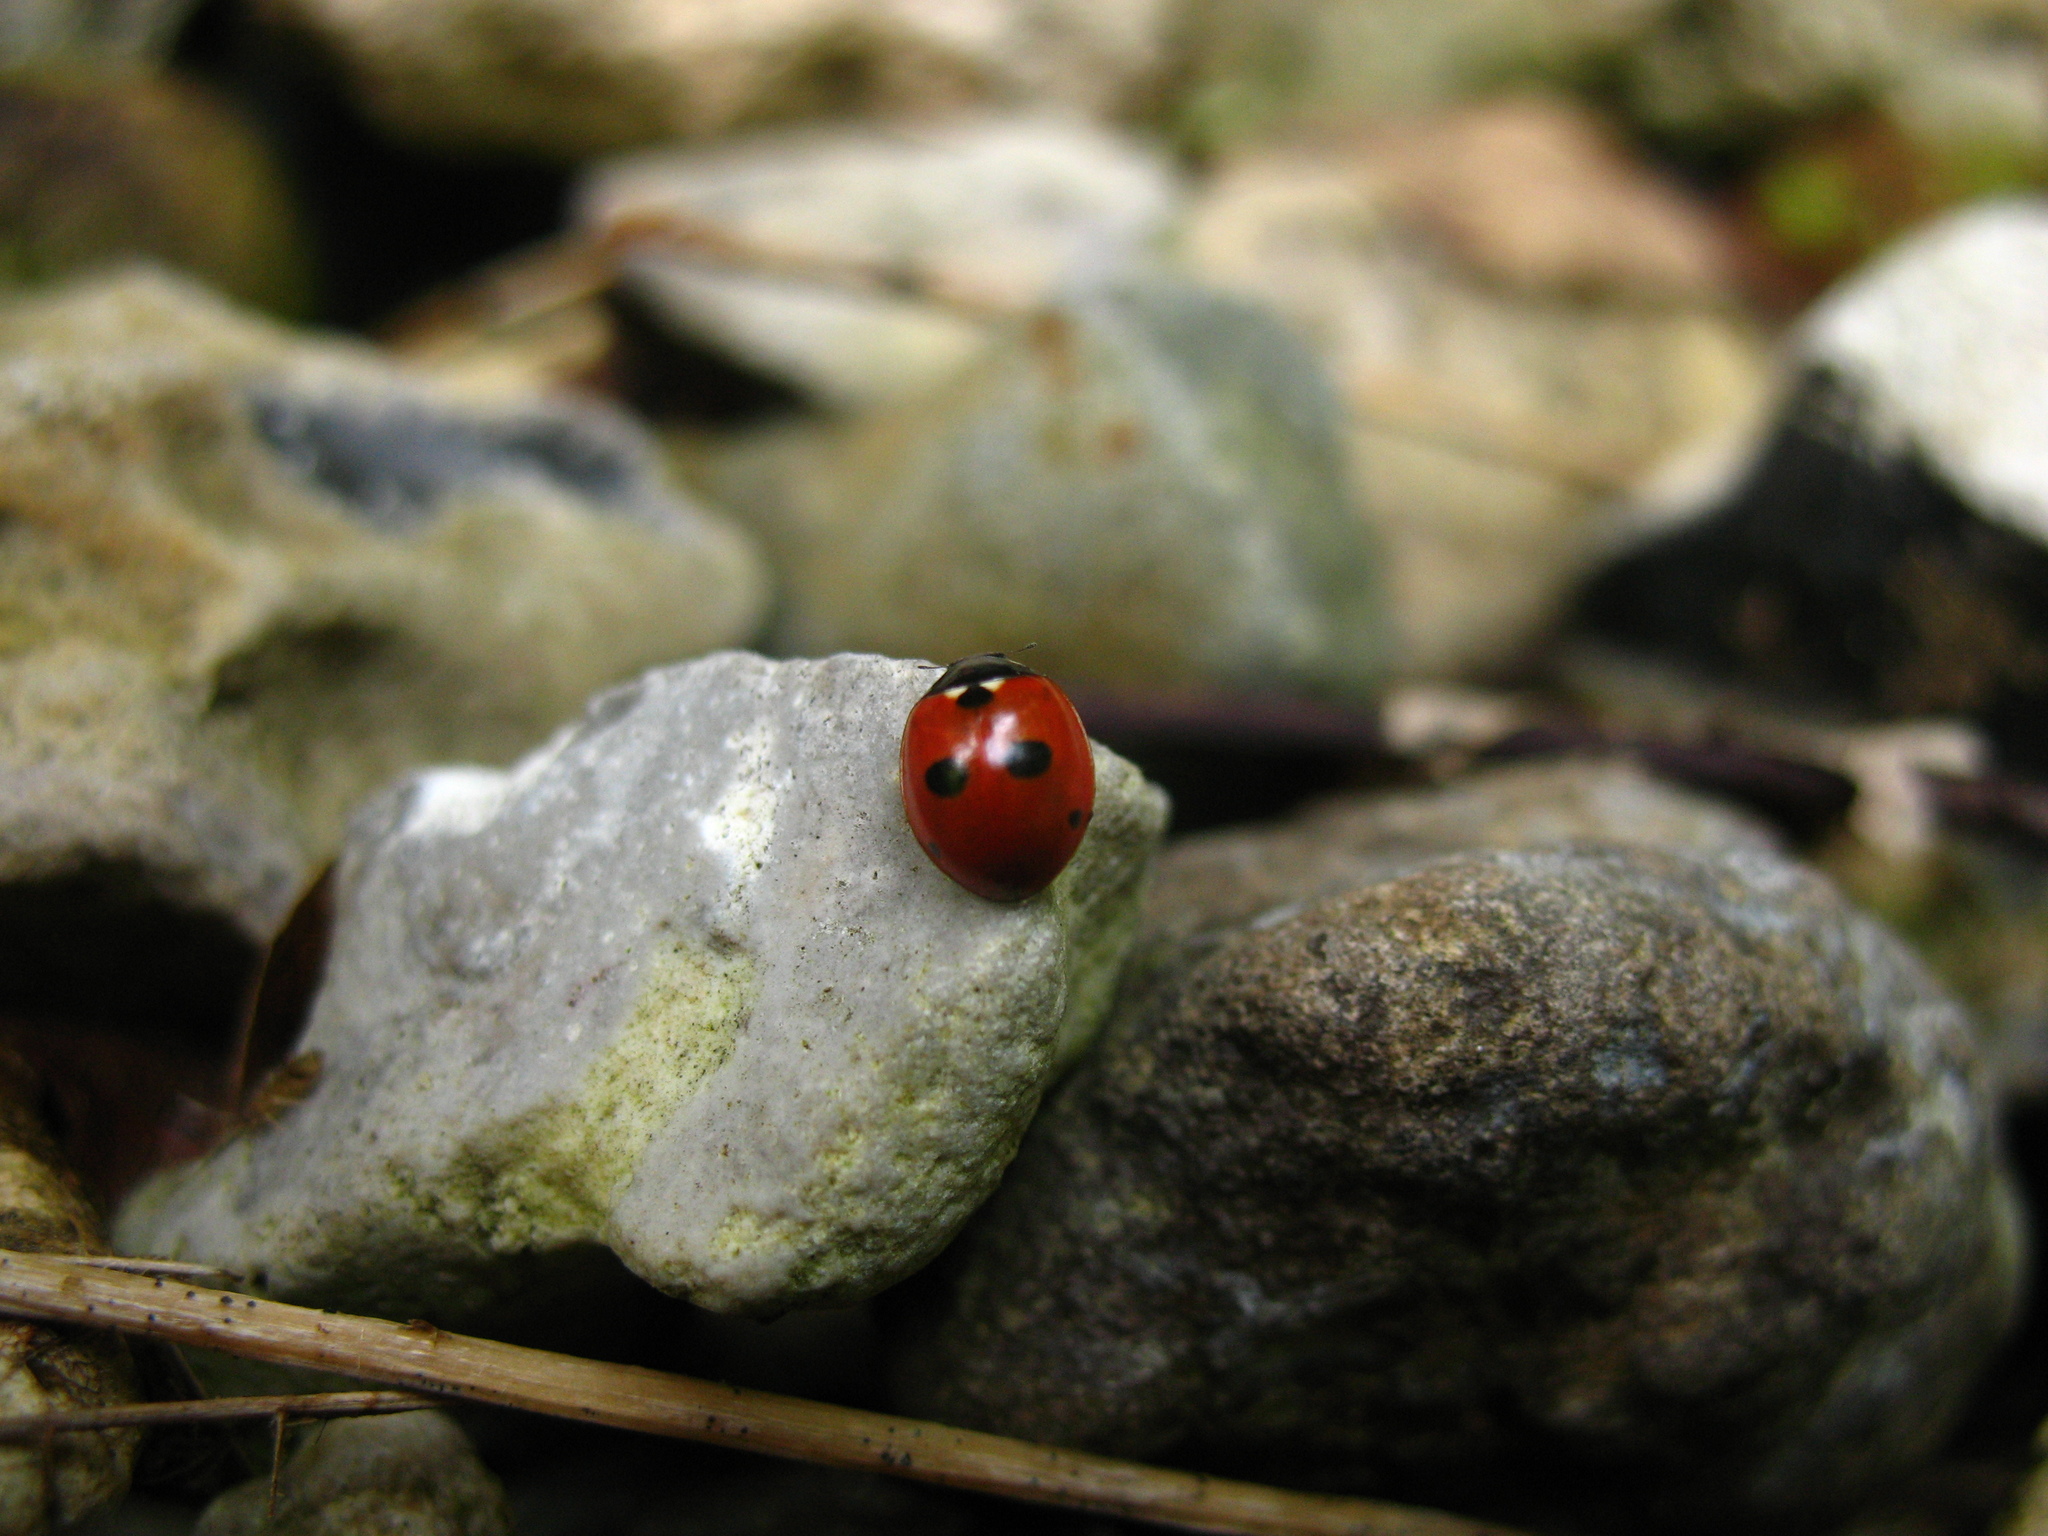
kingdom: Animalia
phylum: Arthropoda
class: Insecta
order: Coleoptera
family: Coccinellidae
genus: Coccinella
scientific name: Coccinella quinquepunctata
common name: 5-spot ladybird
